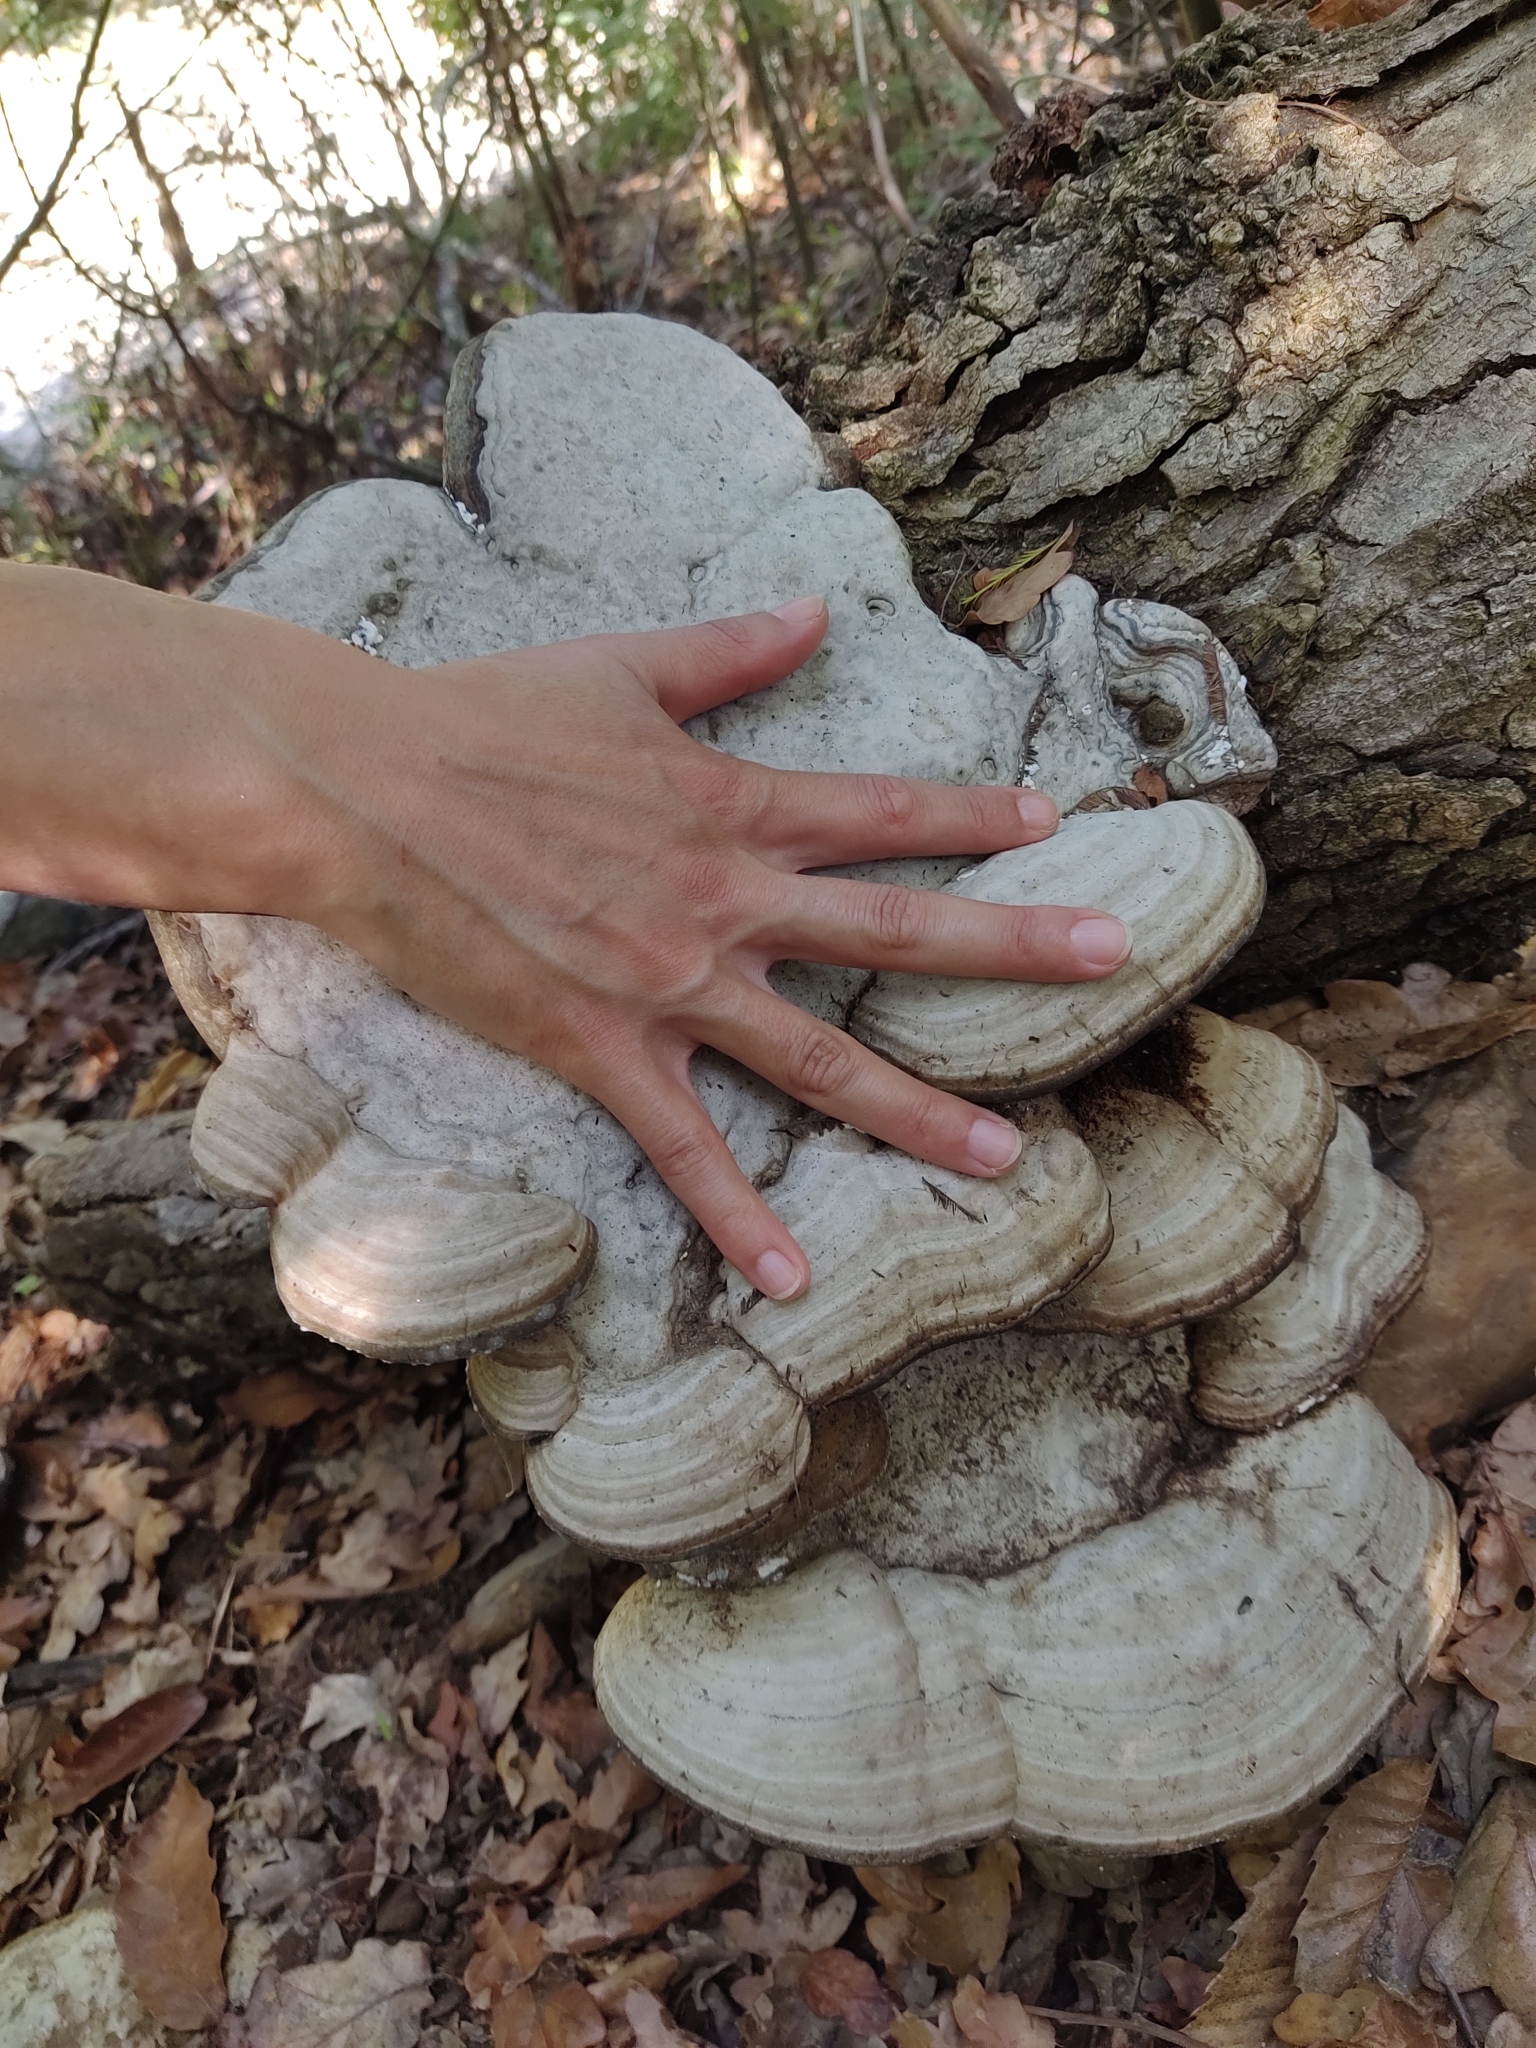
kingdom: Fungi
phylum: Basidiomycota
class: Agaricomycetes
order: Polyporales
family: Polyporaceae
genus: Fomes
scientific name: Fomes fomentarius
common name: Hoof fungus
